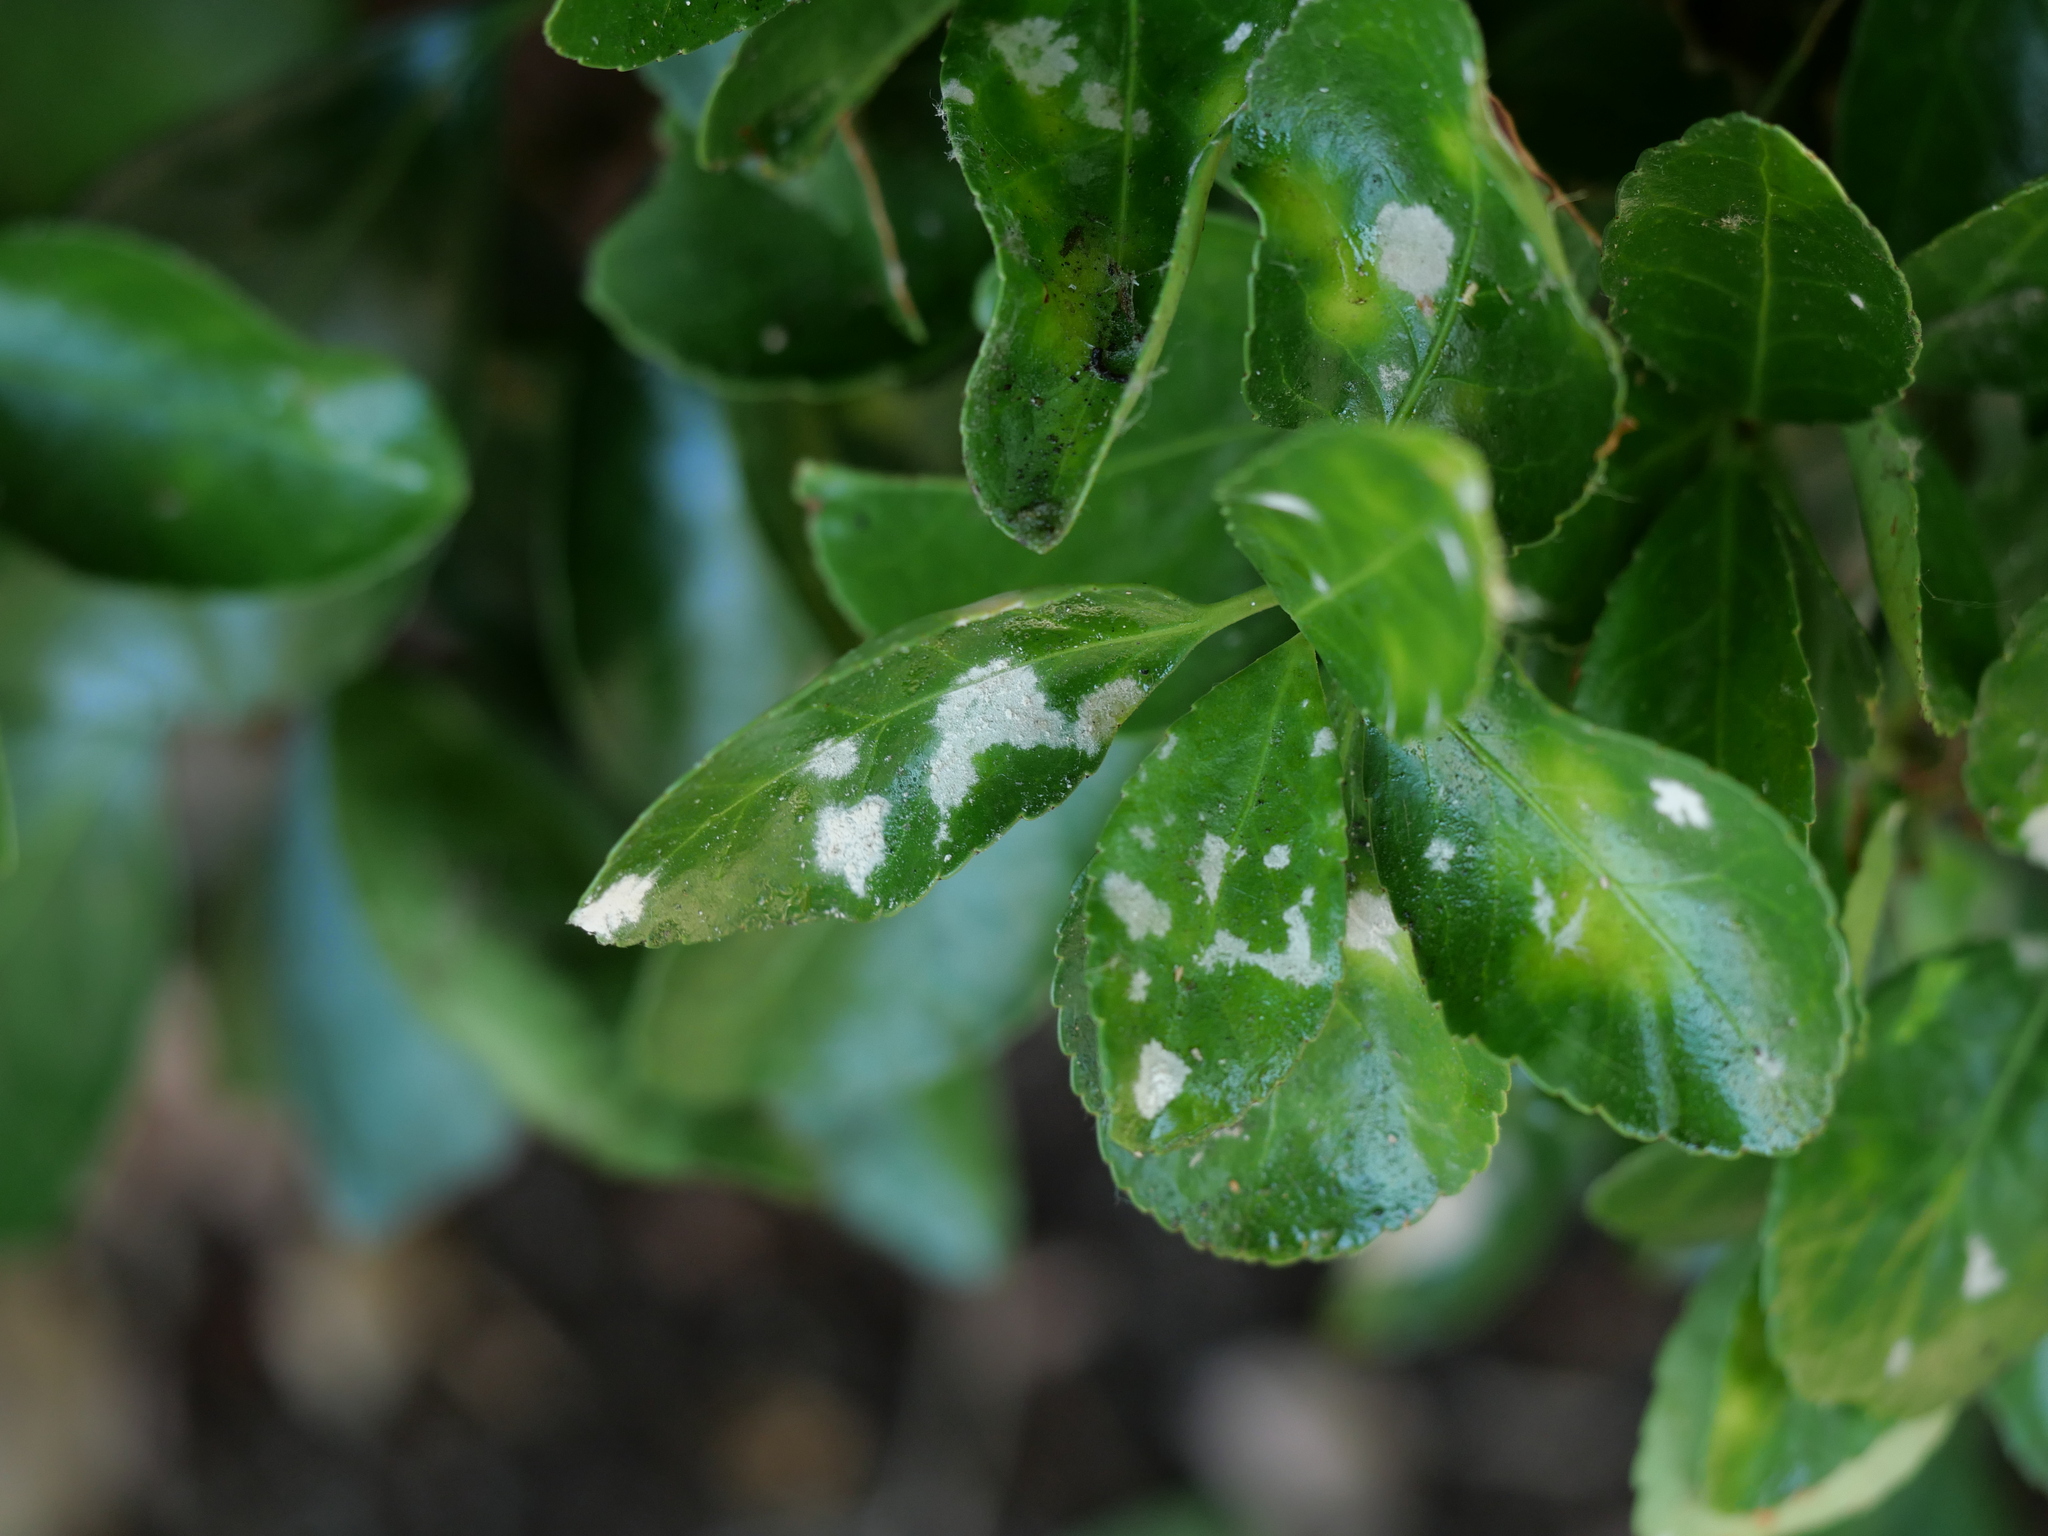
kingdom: Fungi
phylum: Ascomycota
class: Leotiomycetes
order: Helotiales
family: Erysiphaceae
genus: Erysiphe
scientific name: Erysiphe euonymicola
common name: Spindletree mildew
